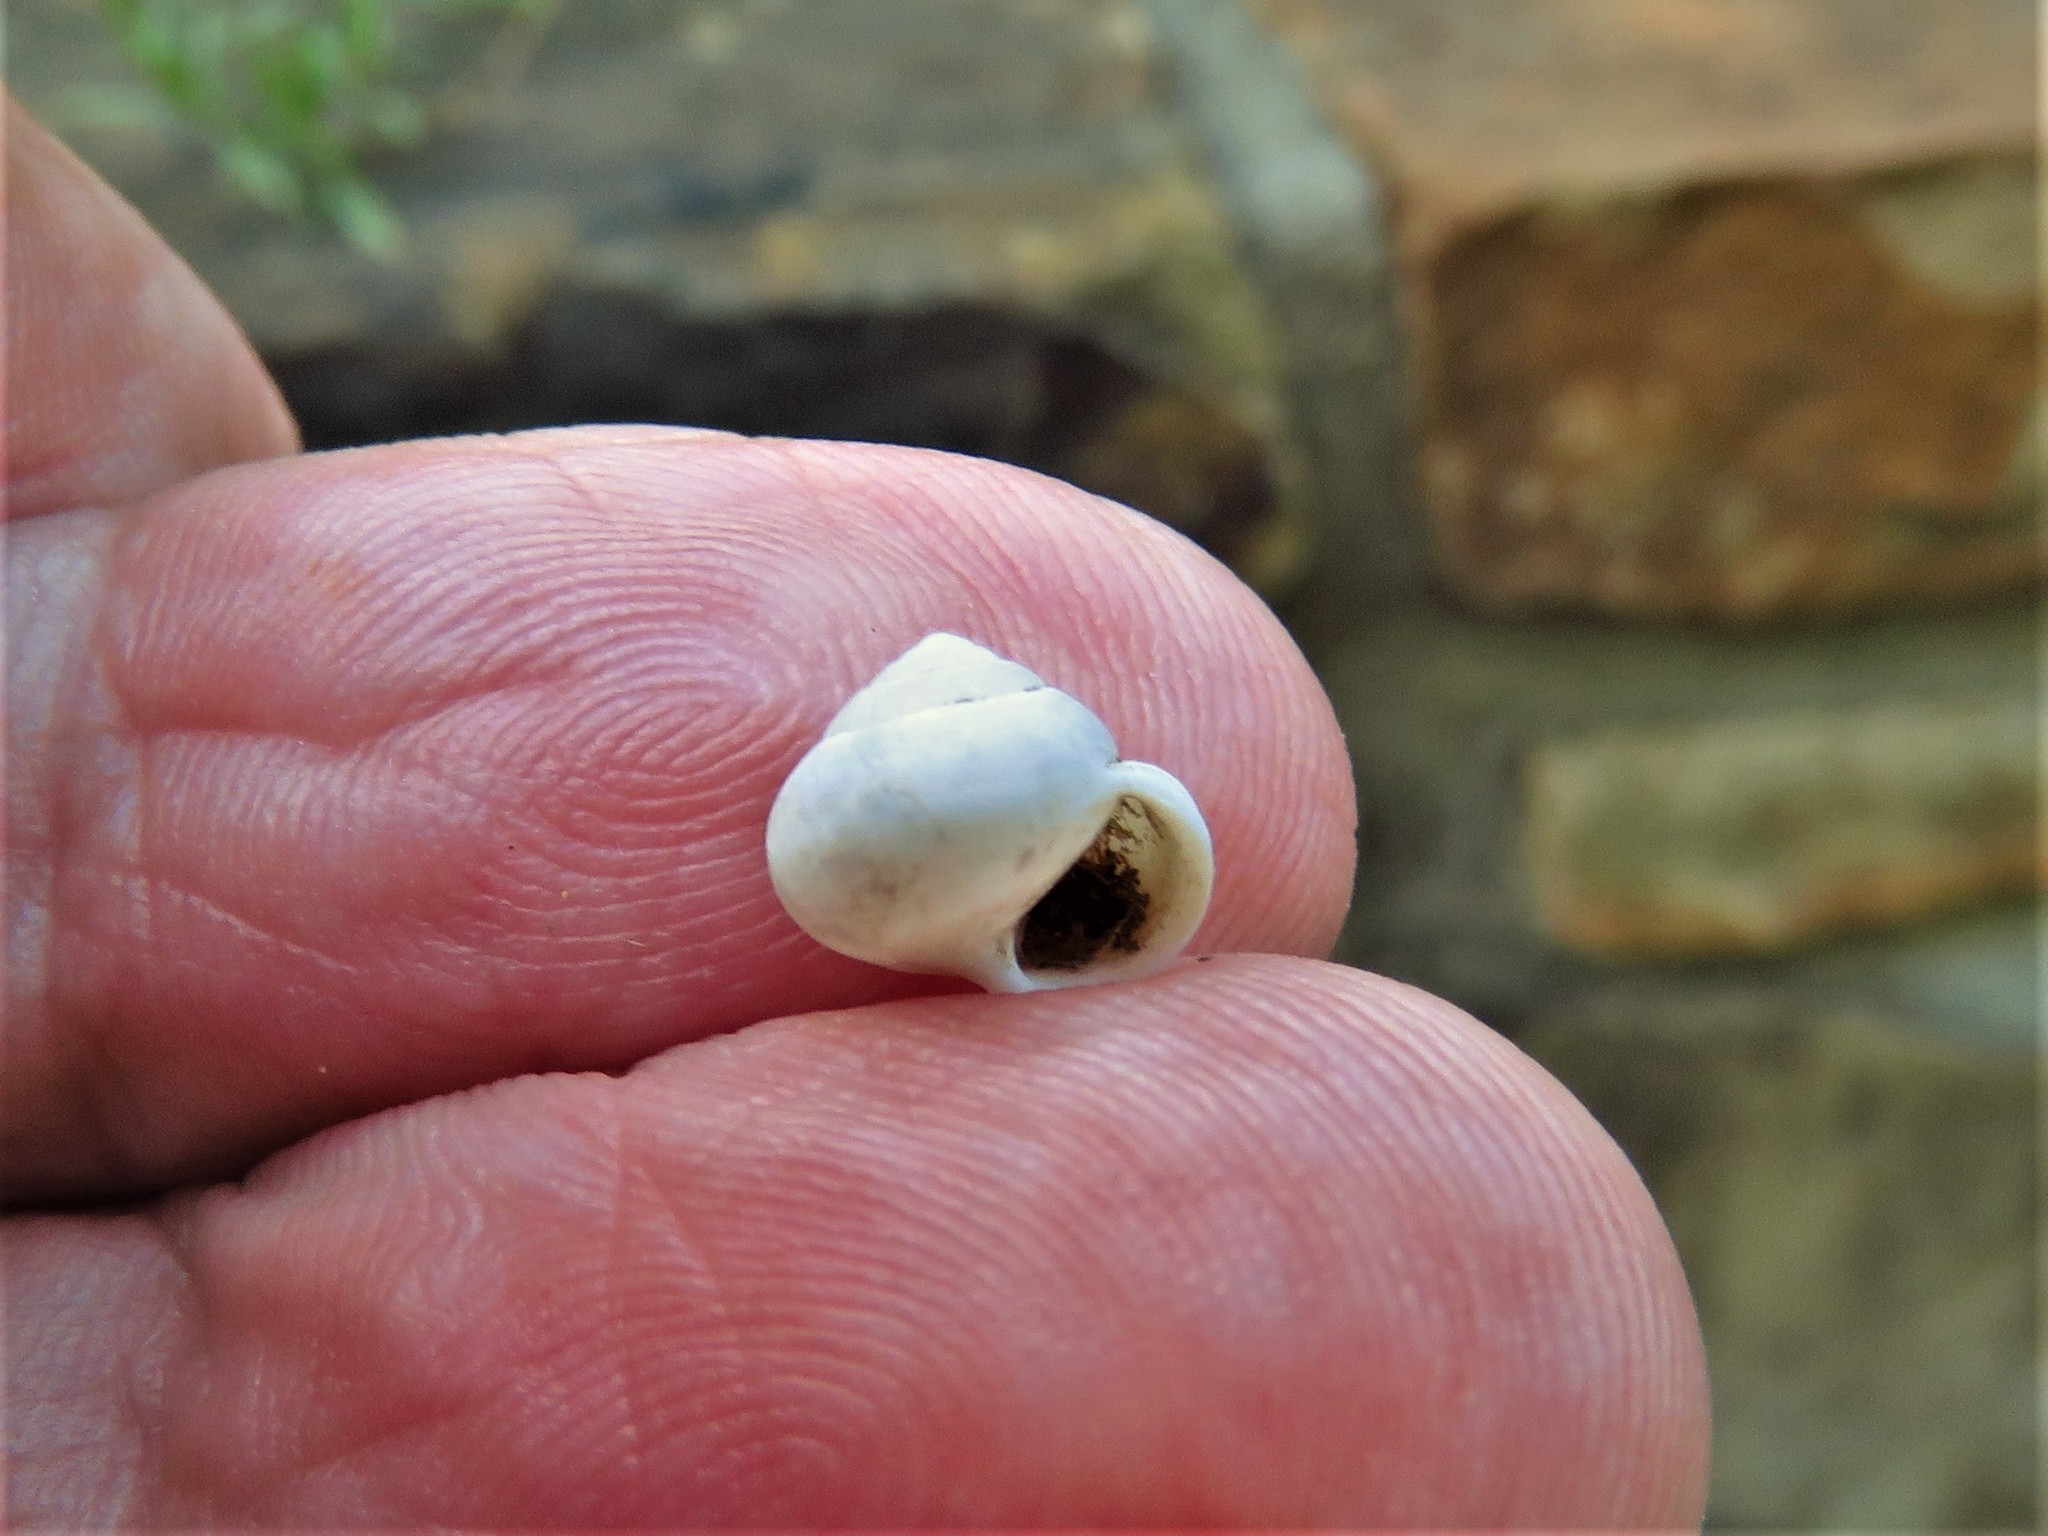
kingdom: Animalia
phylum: Mollusca
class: Gastropoda
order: Cycloneritida
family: Helicinidae
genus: Helicina
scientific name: Helicina orbiculata
